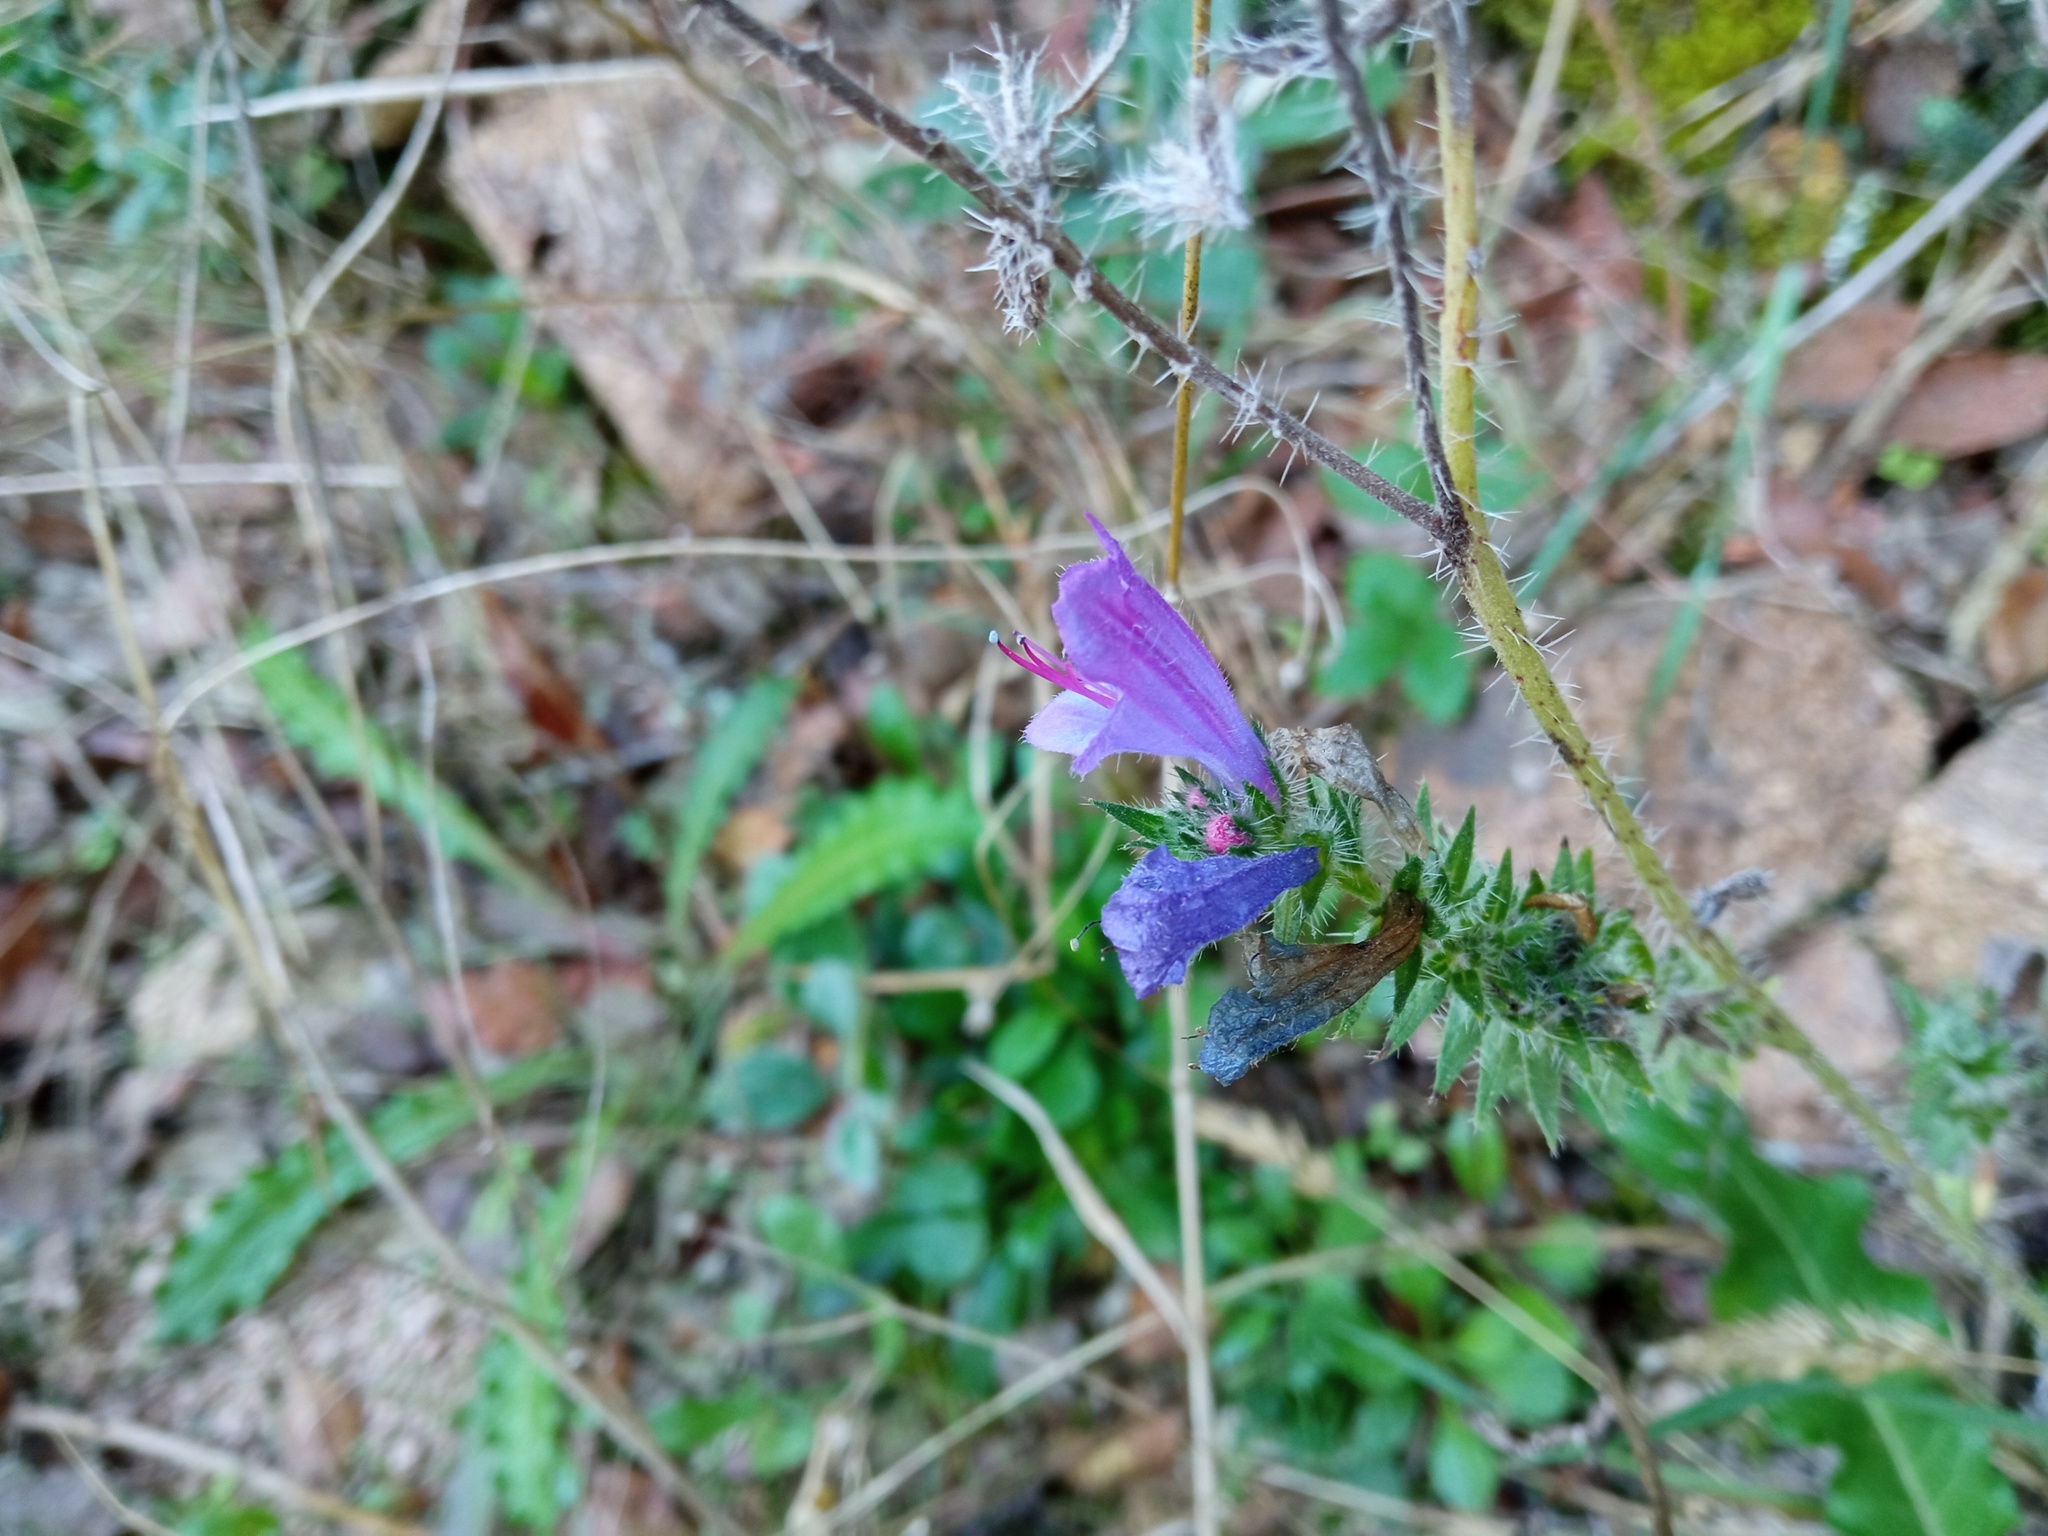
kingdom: Plantae
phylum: Tracheophyta
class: Magnoliopsida
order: Boraginales
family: Boraginaceae
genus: Echium
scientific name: Echium vulgare
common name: Common viper's bugloss
